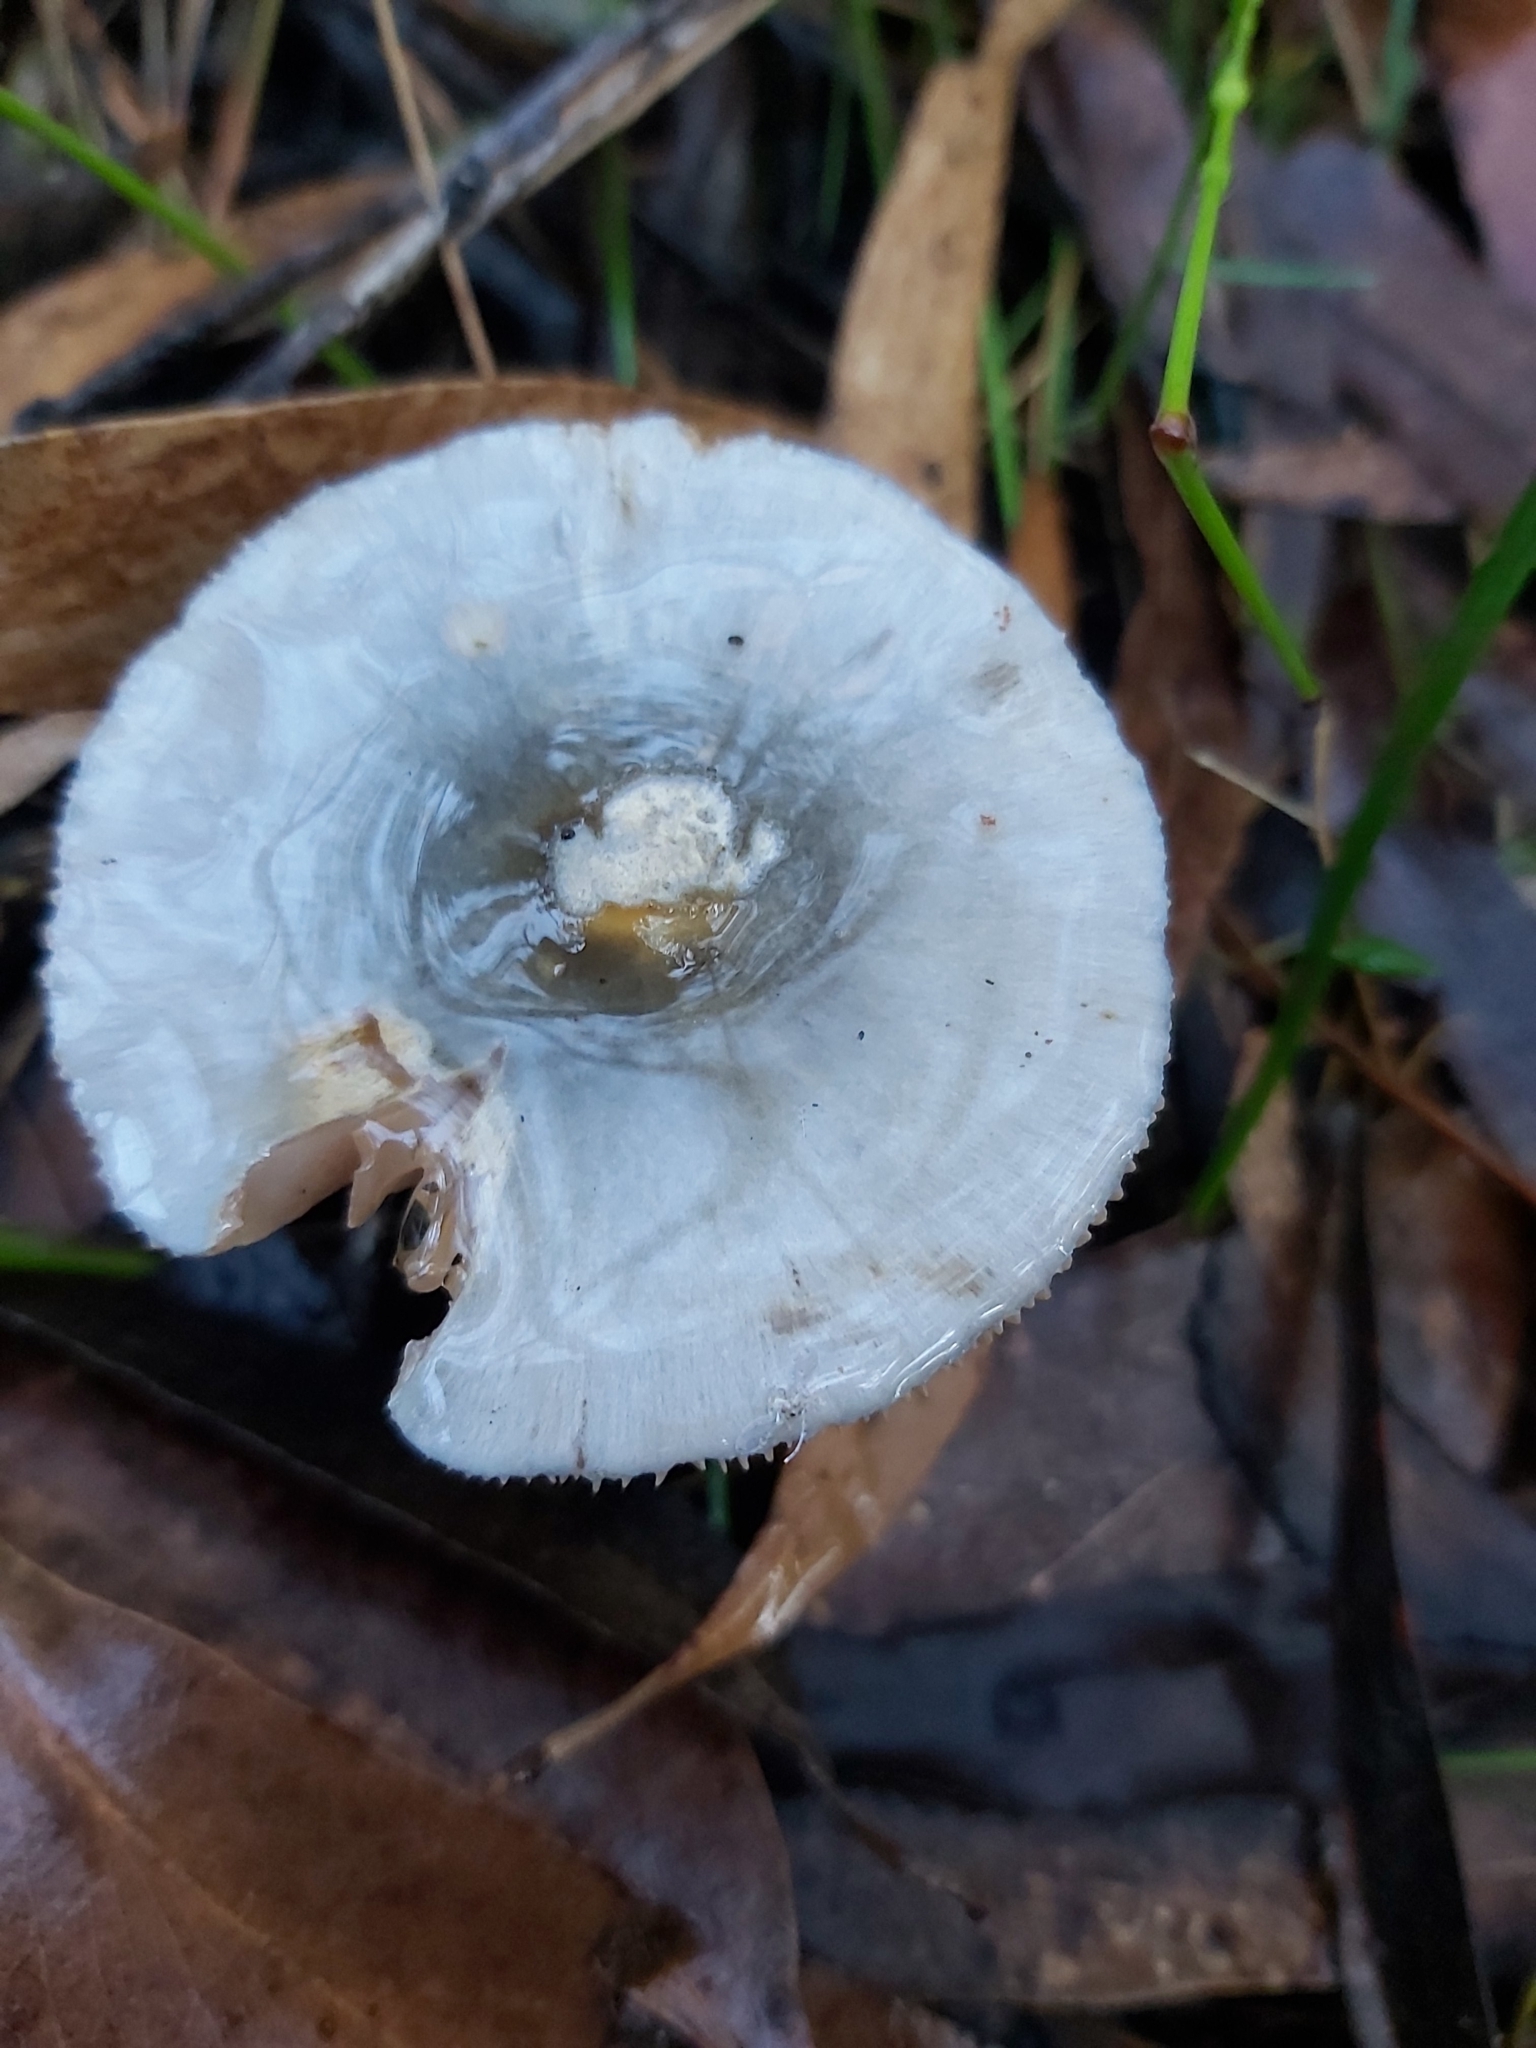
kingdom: Fungi
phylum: Basidiomycota
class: Agaricomycetes
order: Agaricales
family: Cortinariaceae
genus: Cortinarius
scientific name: Cortinarius rotundisporus
